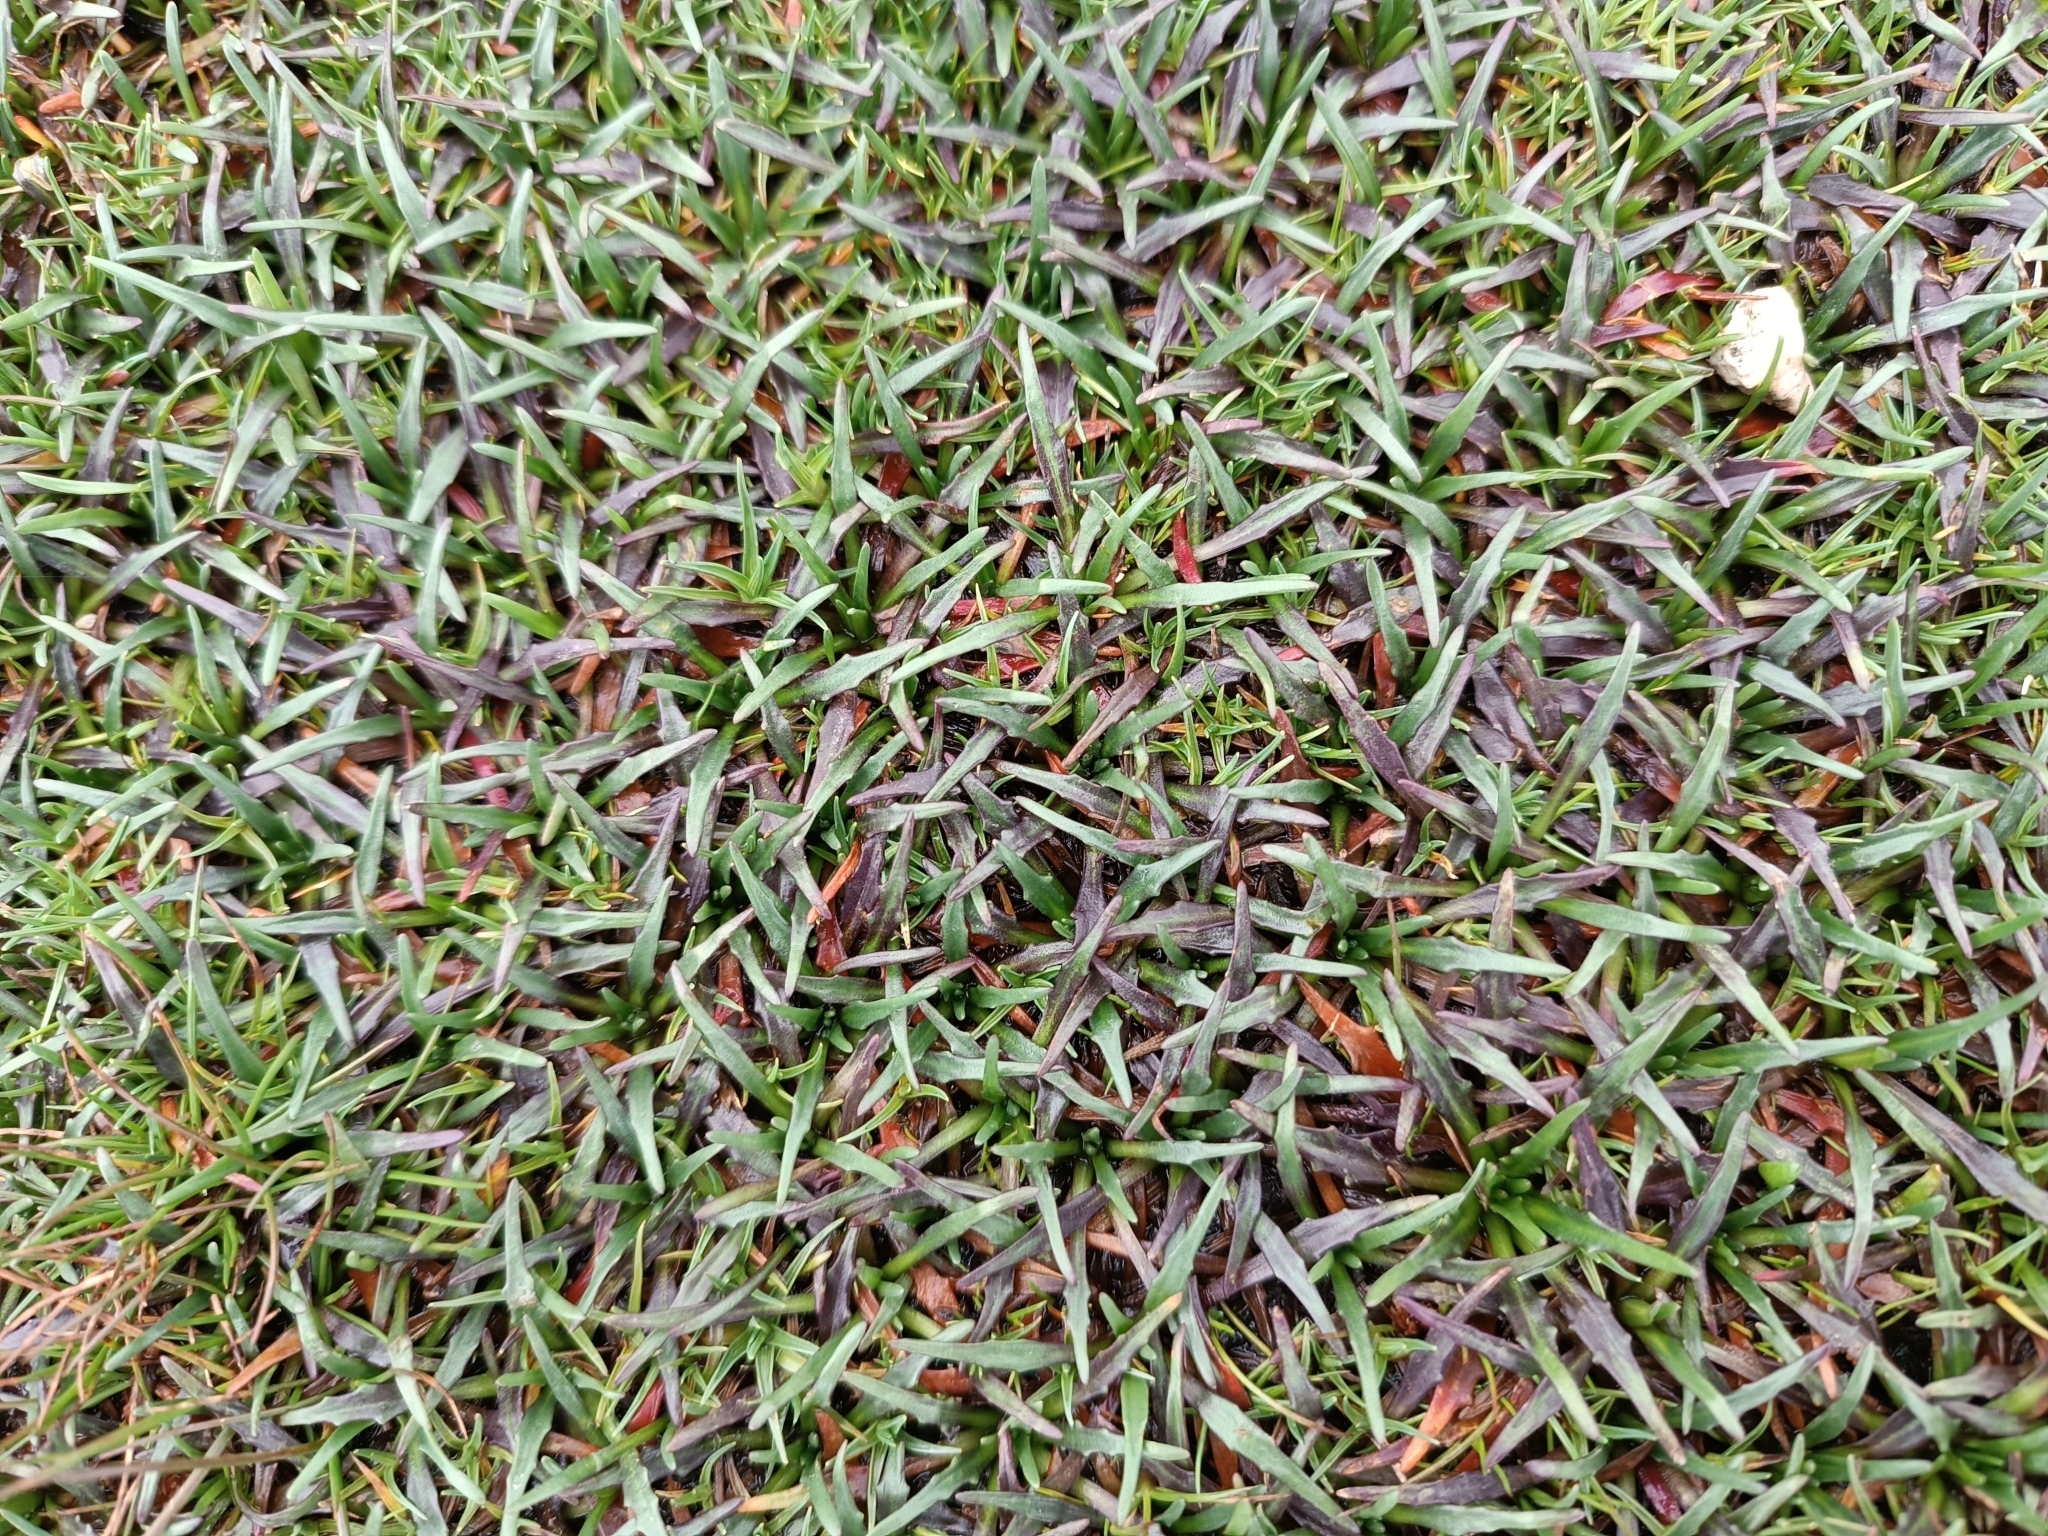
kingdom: Plantae
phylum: Tracheophyta
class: Magnoliopsida
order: Lamiales
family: Plantaginaceae
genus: Plantago
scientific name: Plantago tubulosa
